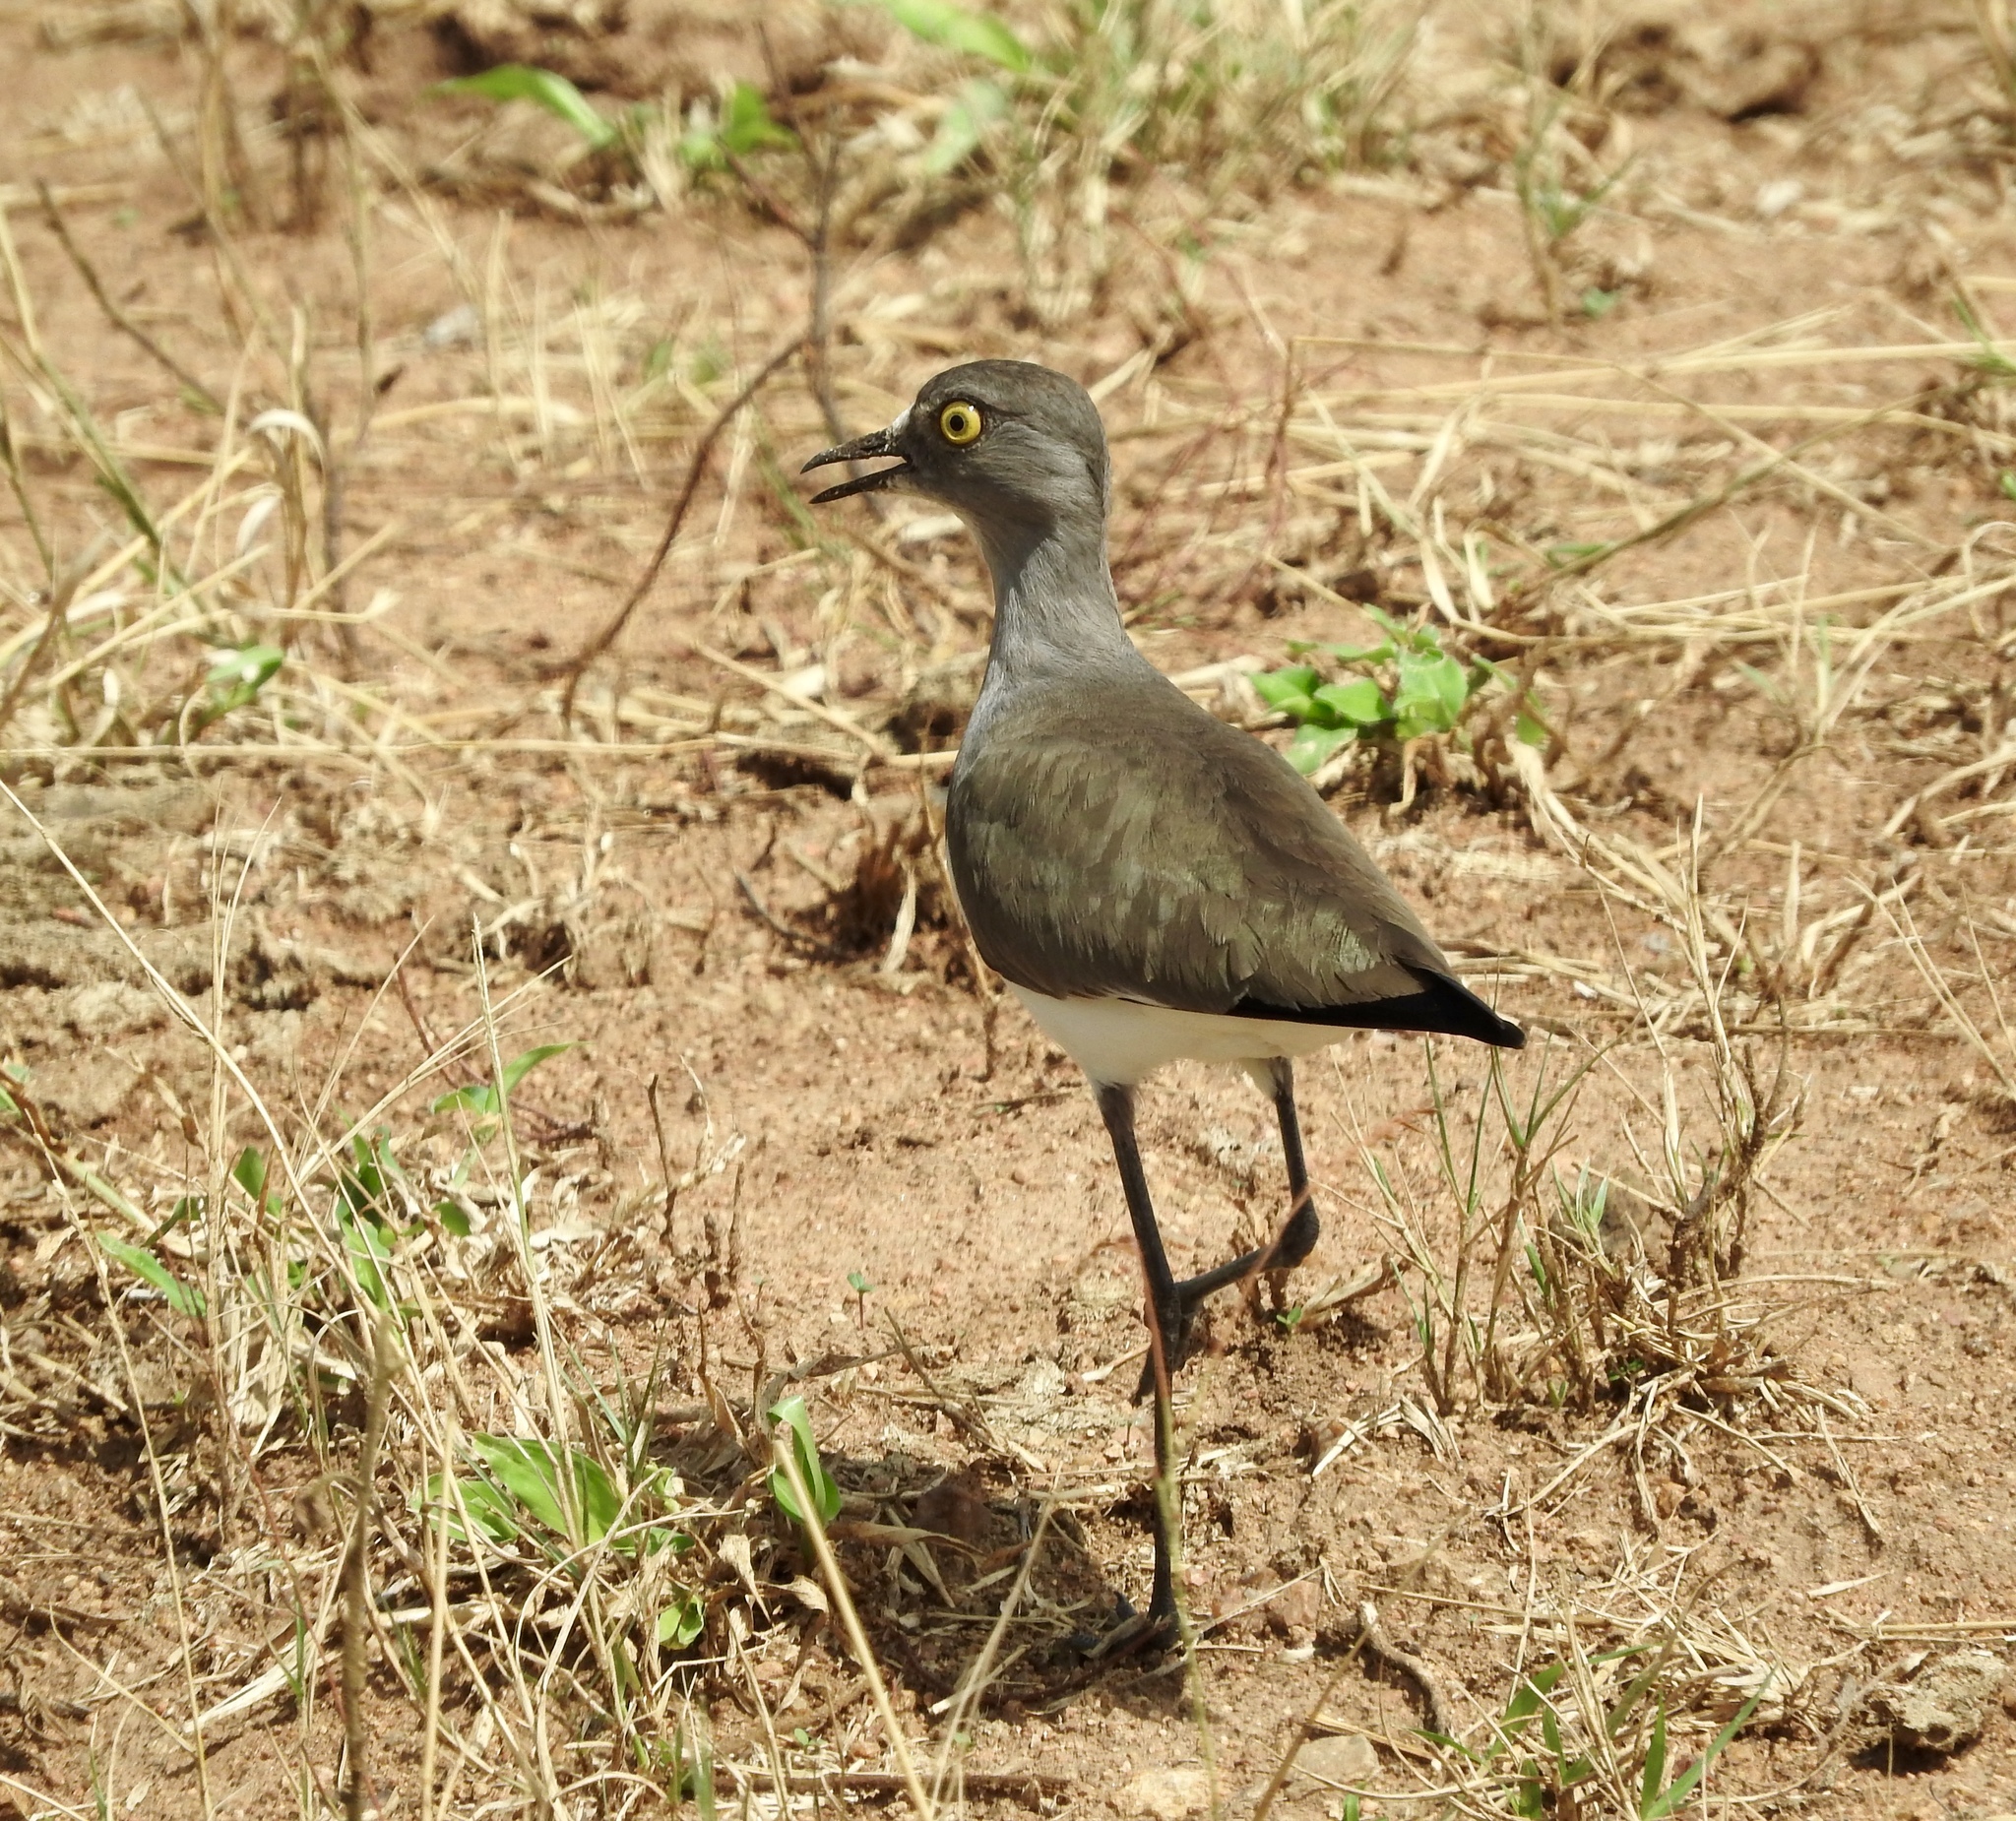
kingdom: Animalia
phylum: Chordata
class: Aves
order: Charadriiformes
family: Charadriidae
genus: Vanellus
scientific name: Vanellus lugubris
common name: Senegal lapwing
